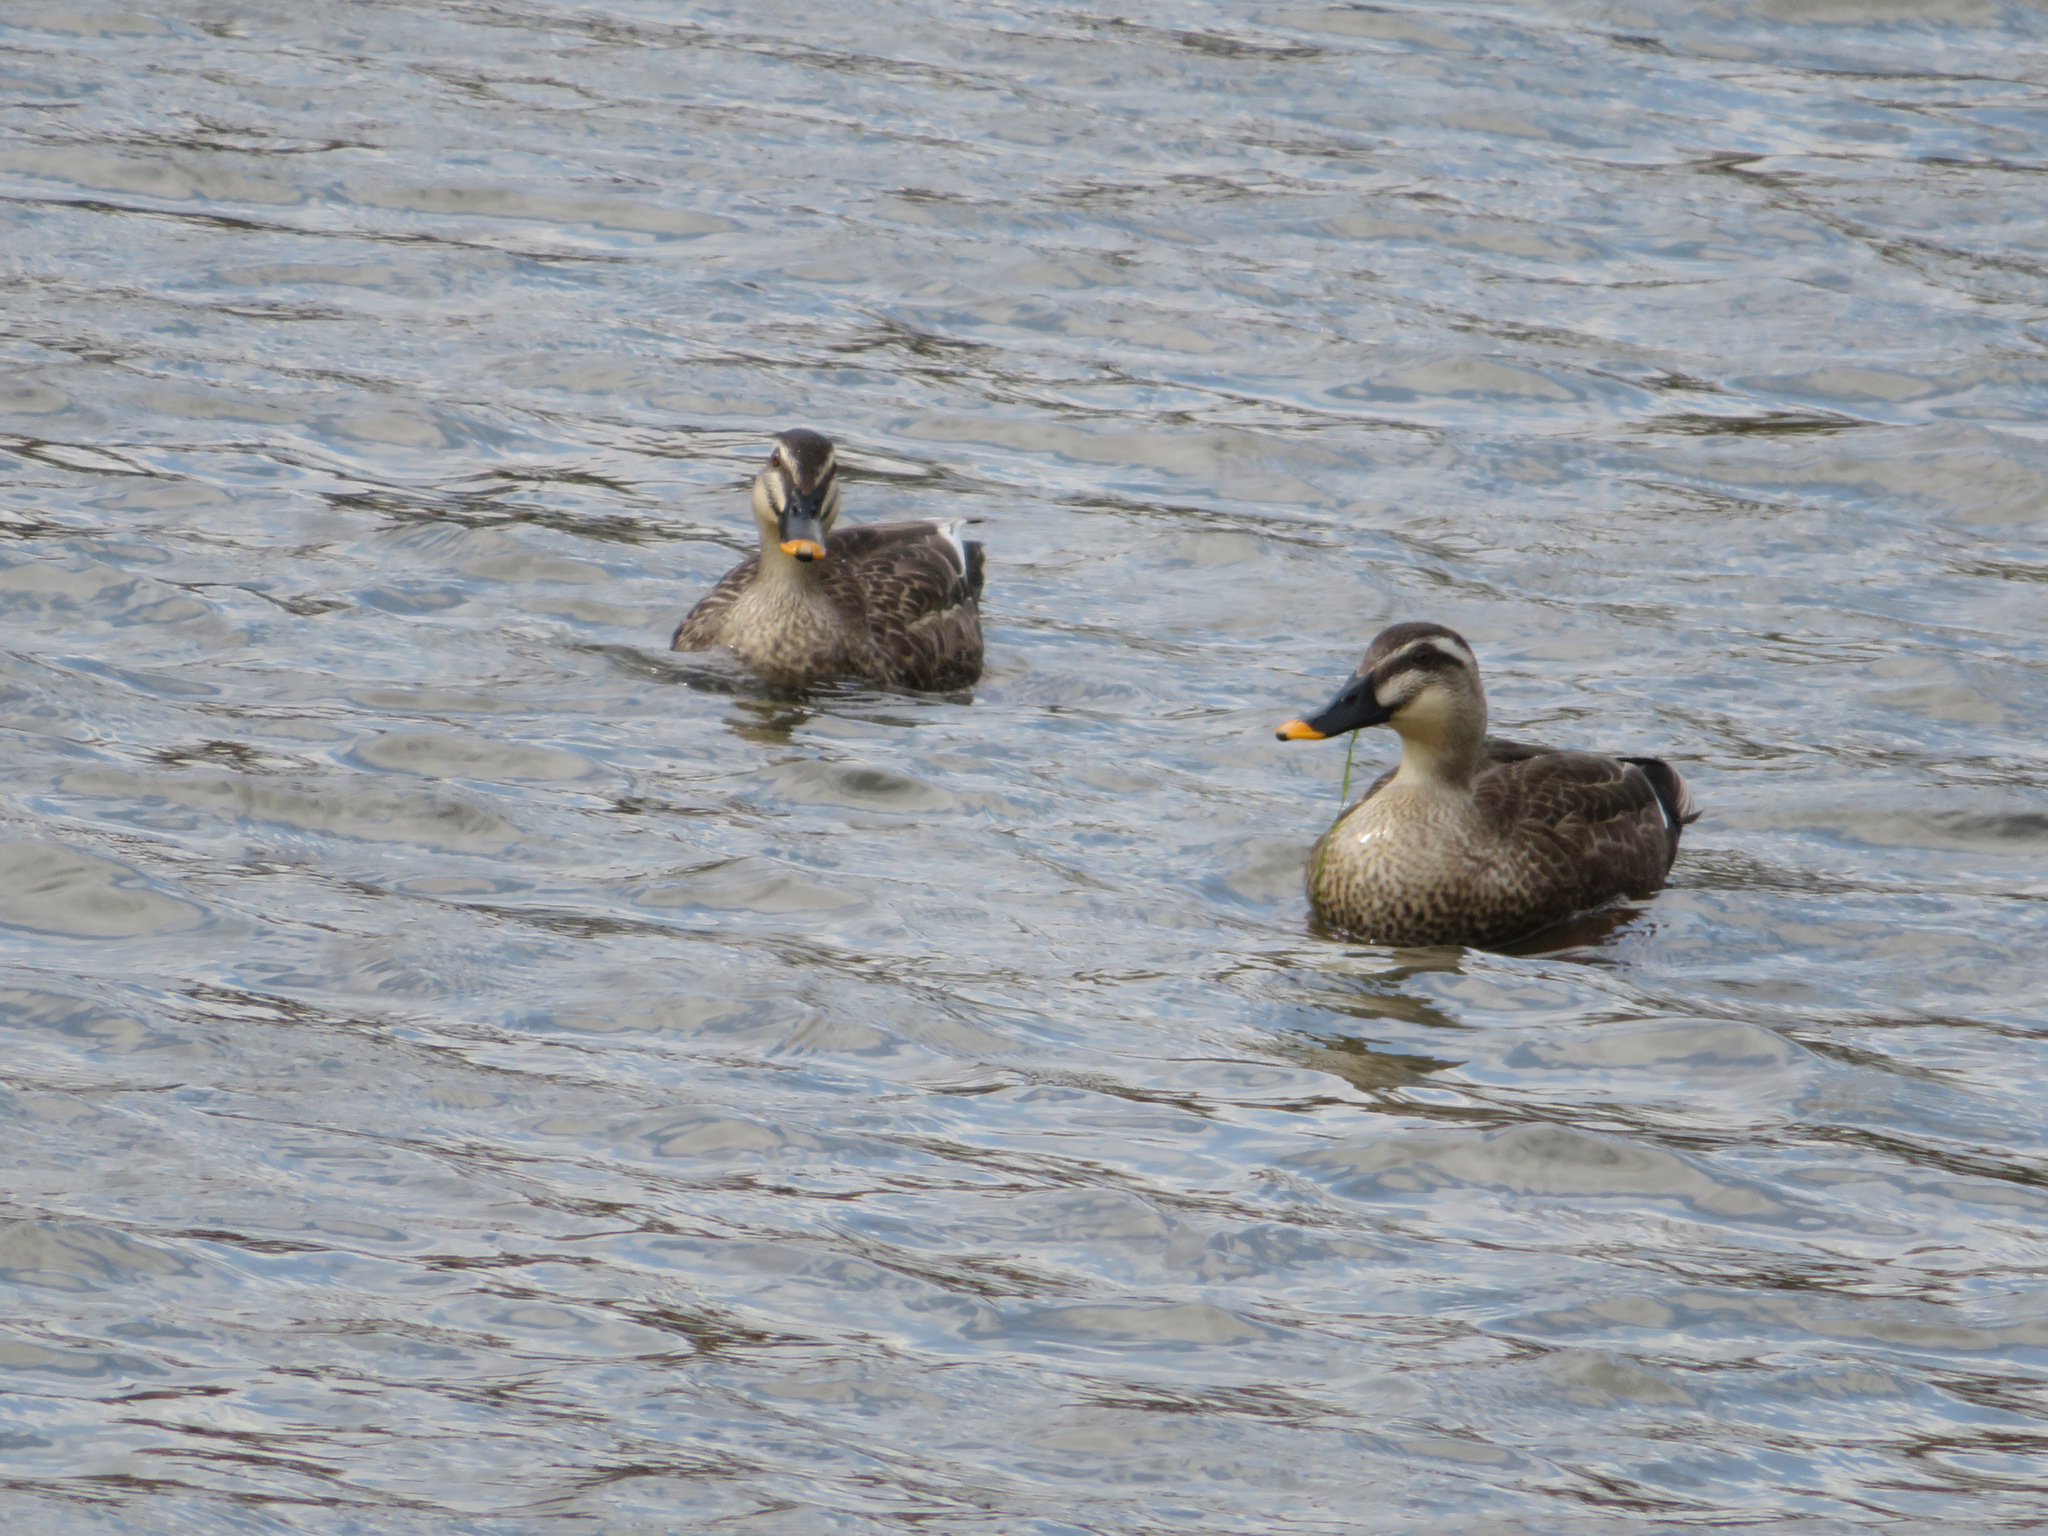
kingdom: Animalia
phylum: Chordata
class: Aves
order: Anseriformes
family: Anatidae
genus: Anas
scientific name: Anas zonorhyncha
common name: Eastern spot-billed duck
